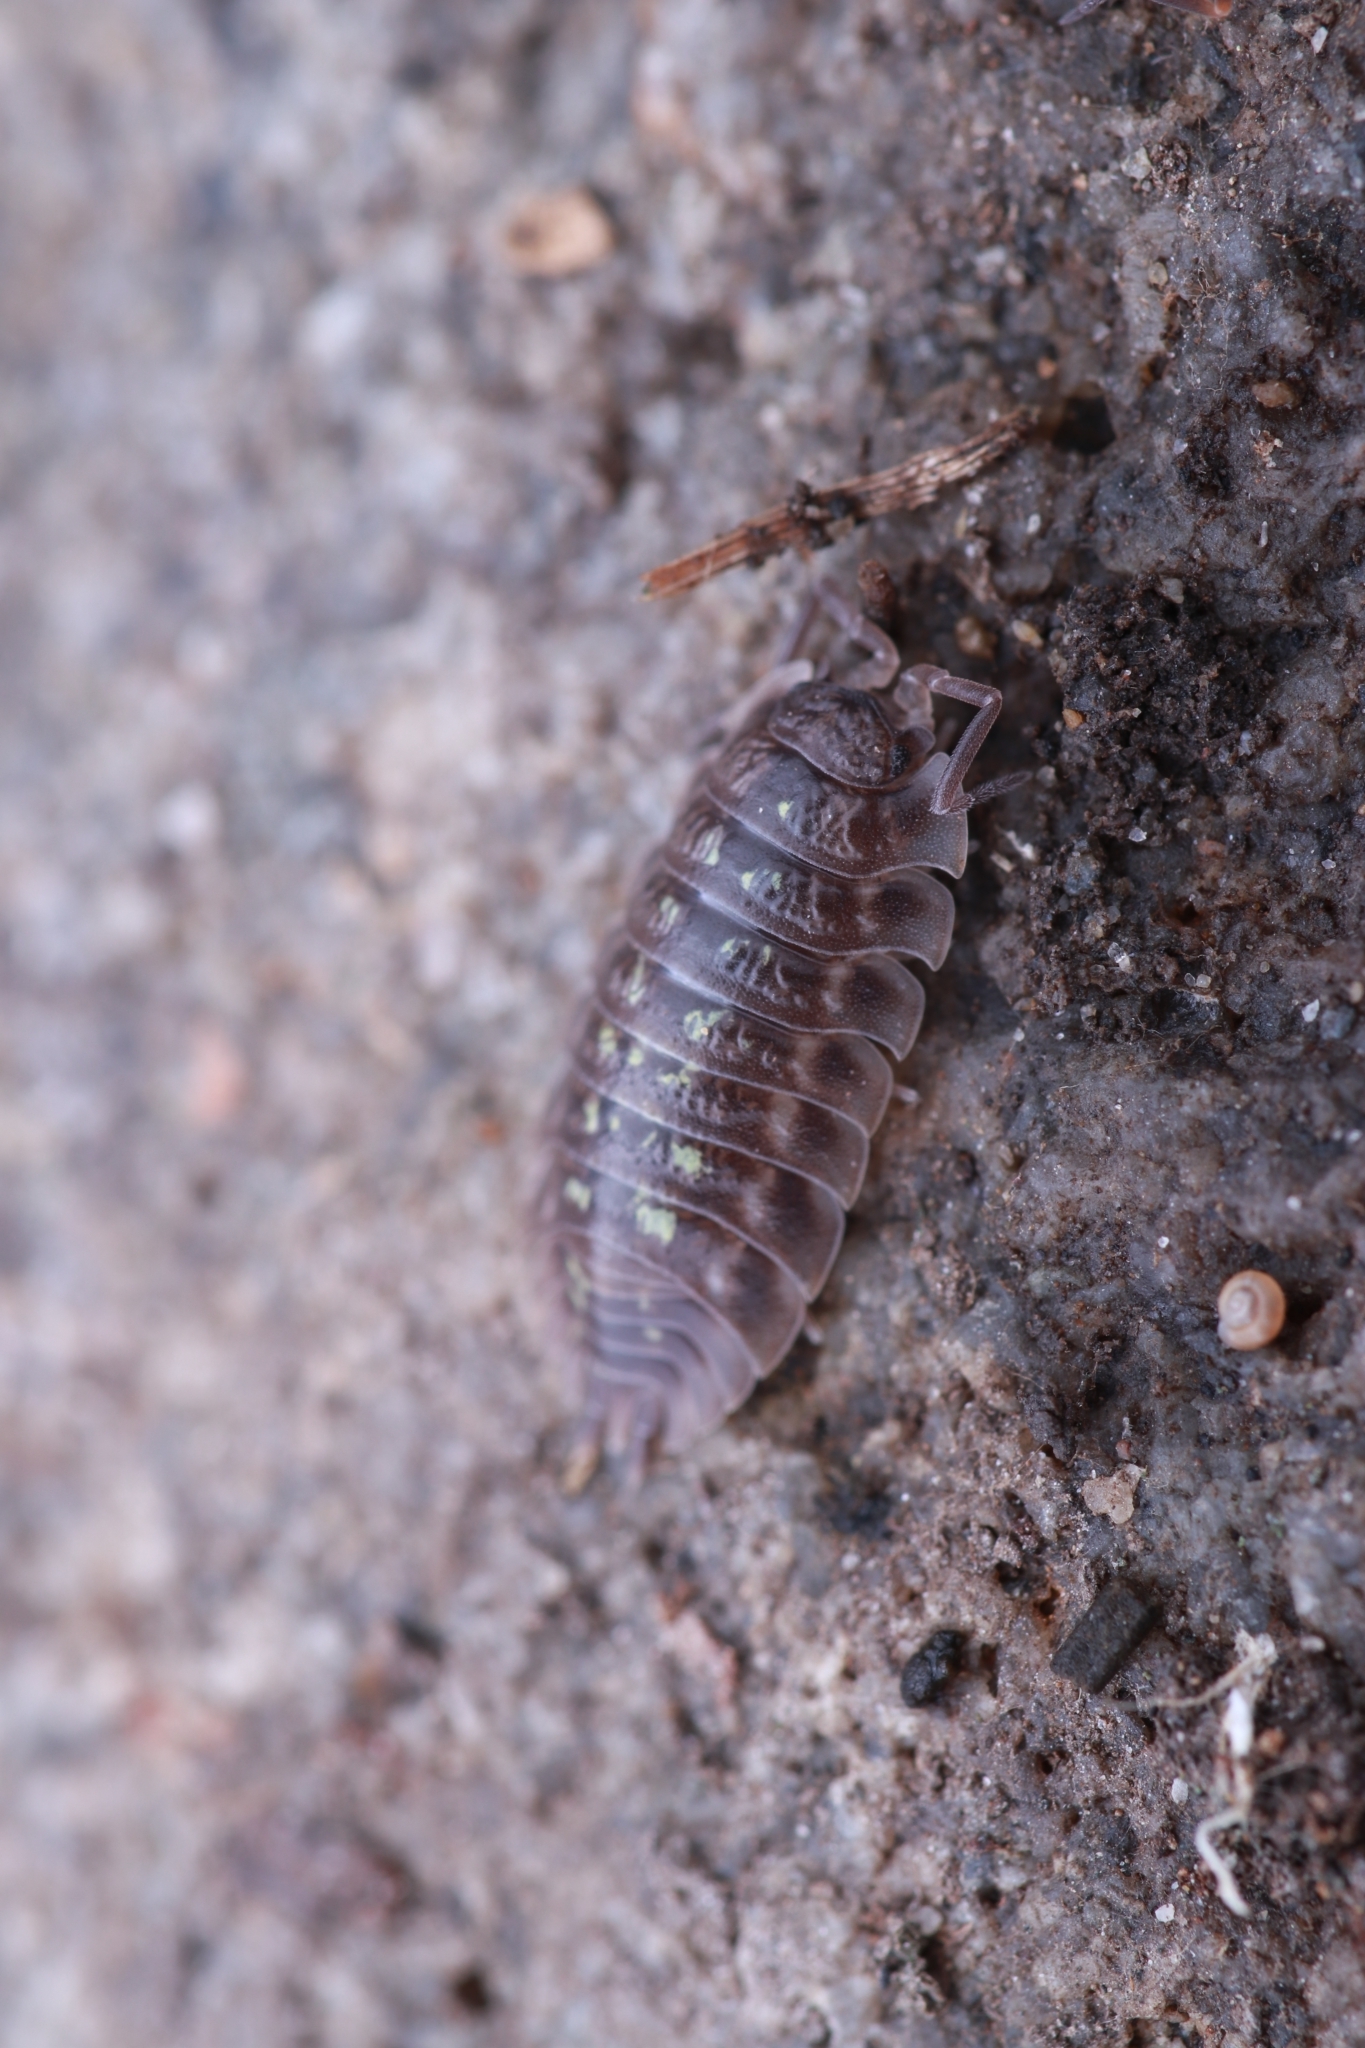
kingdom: Animalia
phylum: Arthropoda
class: Malacostraca
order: Isopoda
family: Oniscidae
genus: Oniscus
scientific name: Oniscus asellus
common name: Common shiny woodlouse
